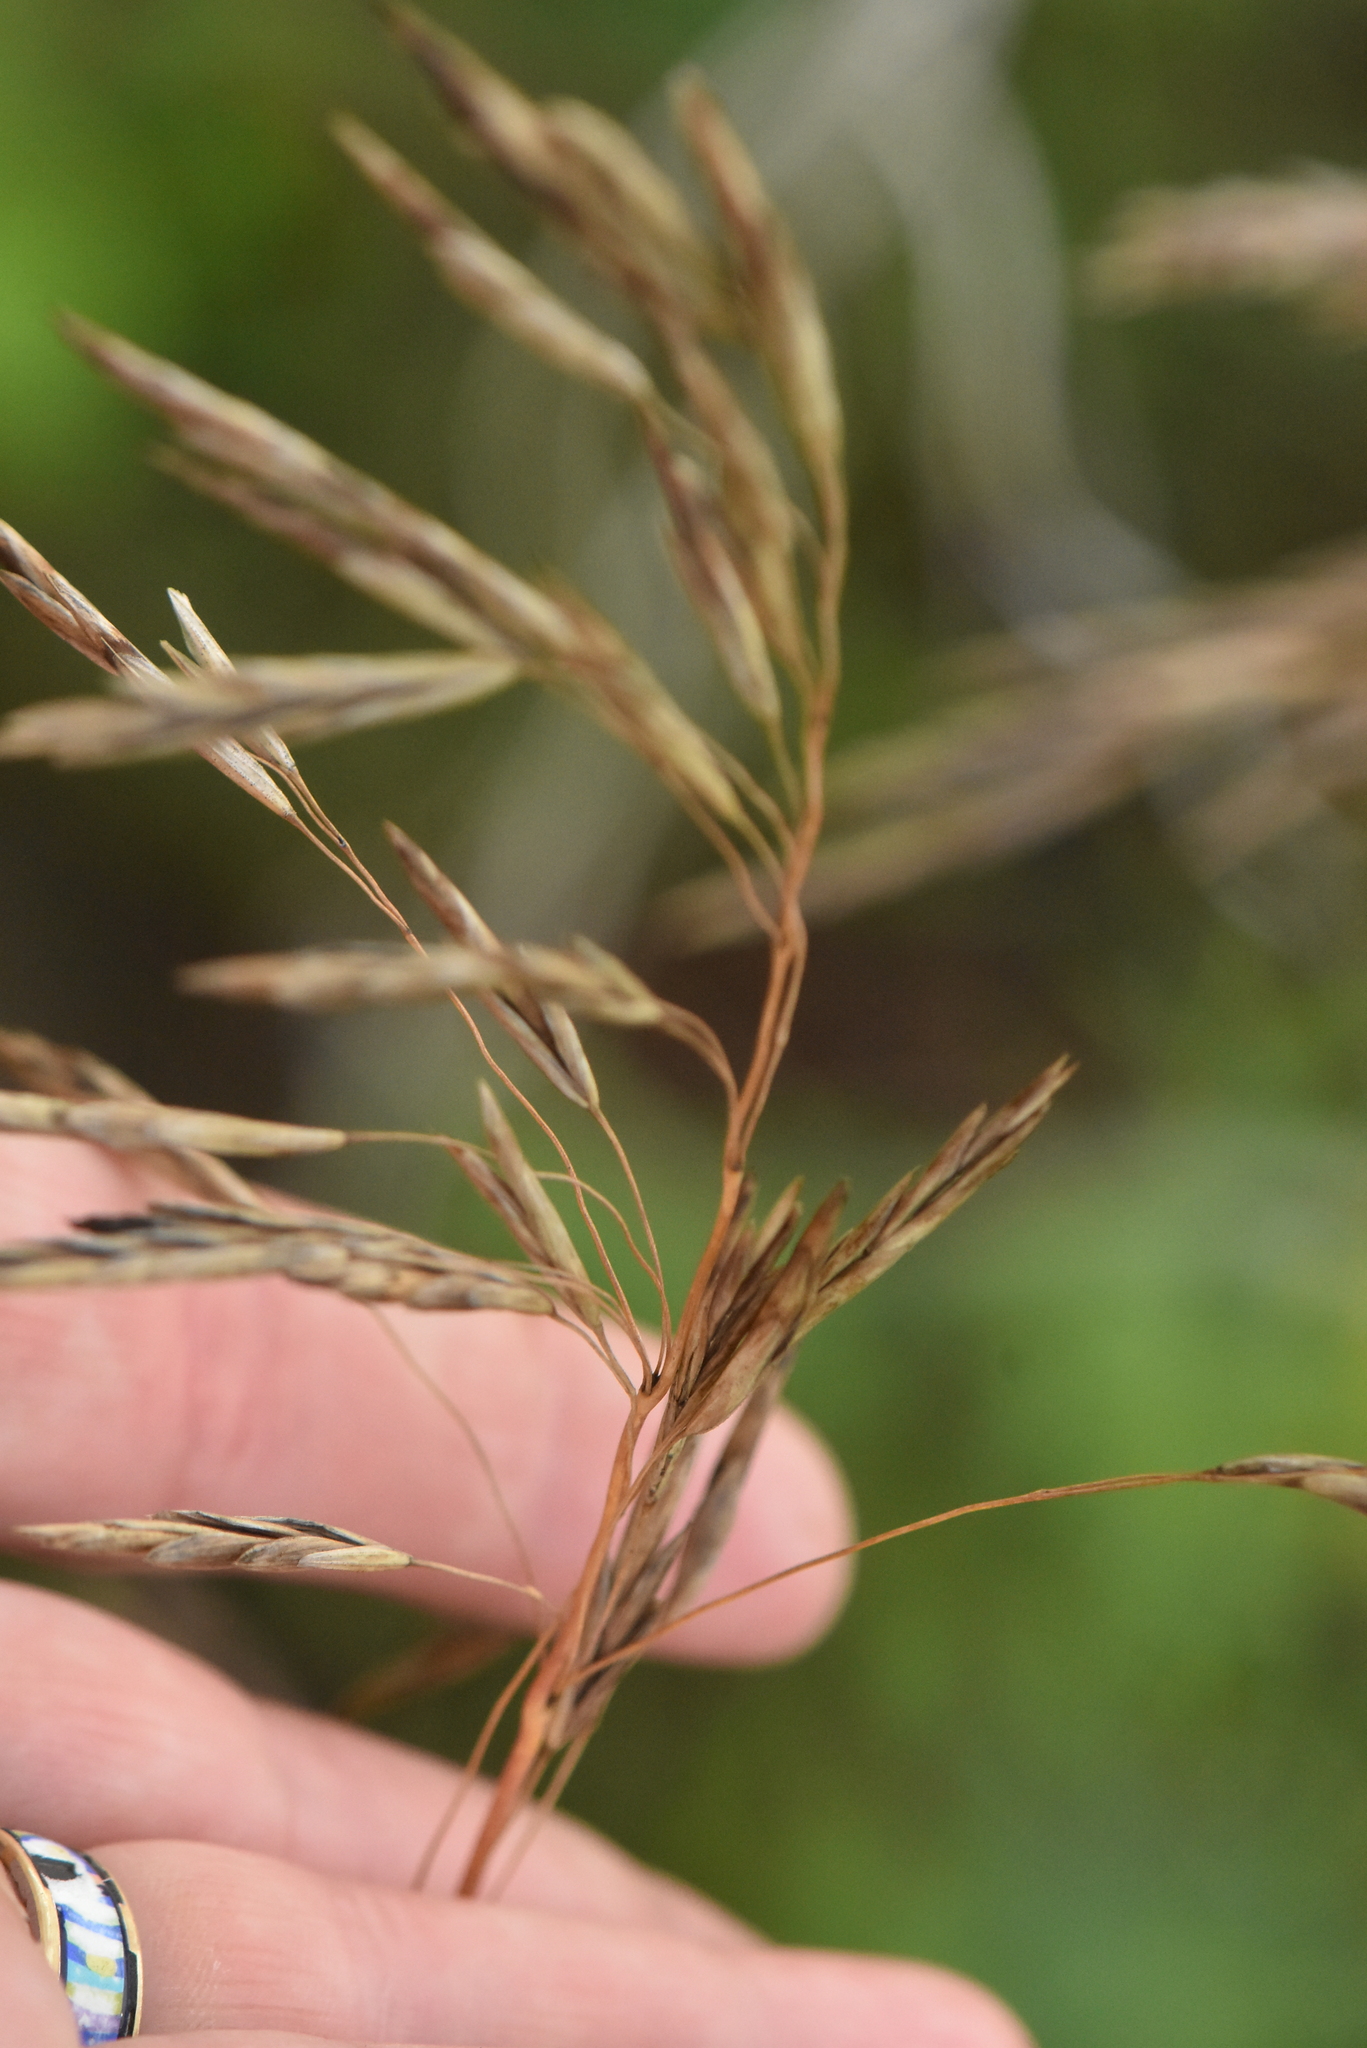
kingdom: Plantae
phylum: Tracheophyta
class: Liliopsida
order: Poales
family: Poaceae
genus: Bromus
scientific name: Bromus inermis
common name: Smooth brome
